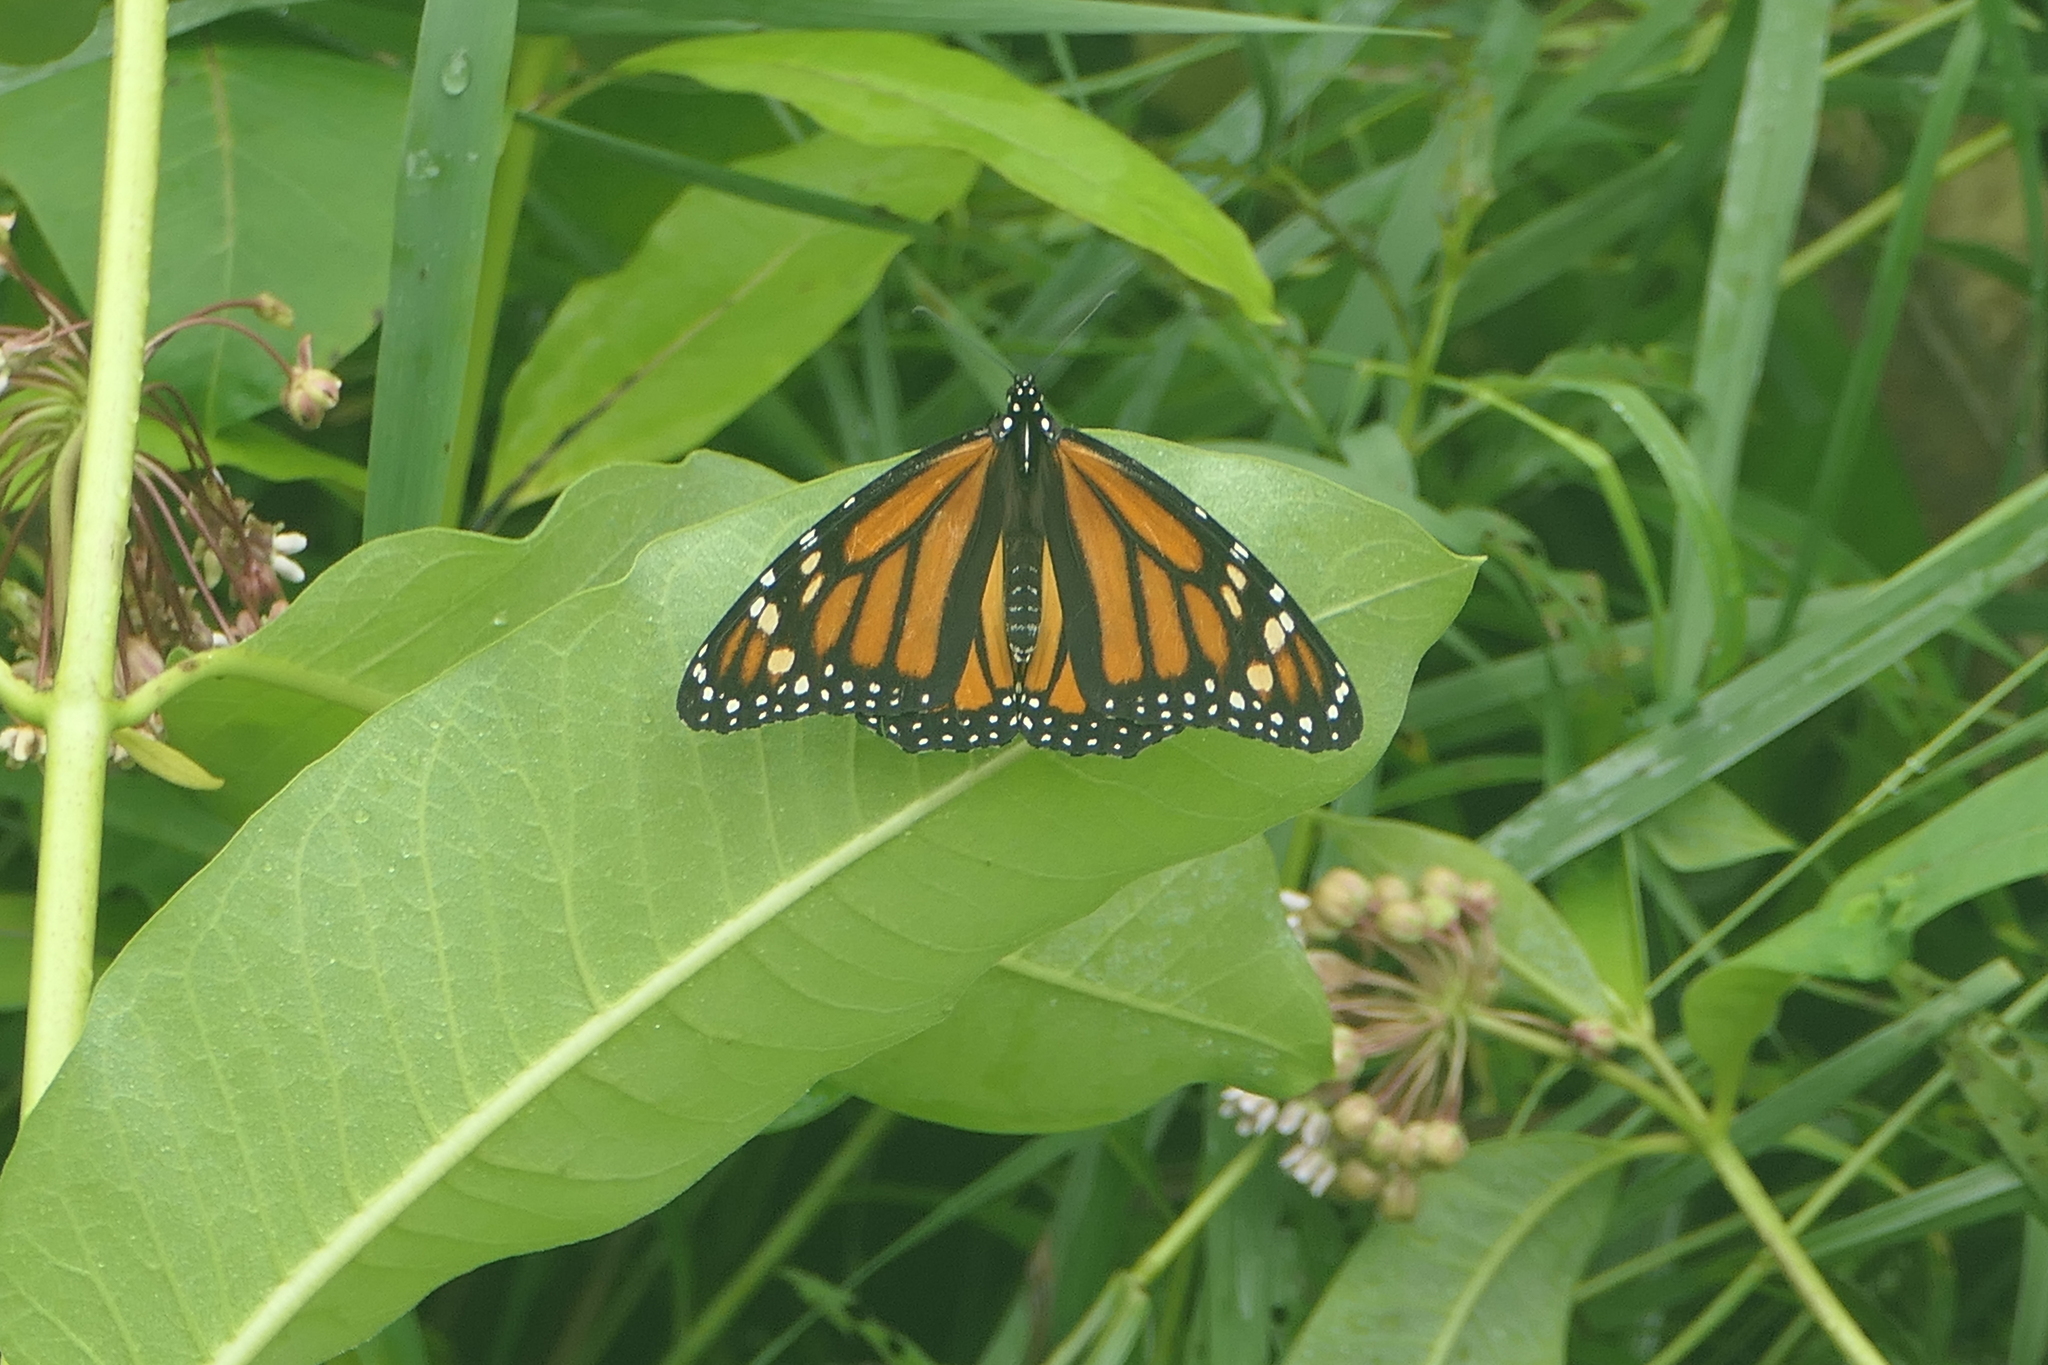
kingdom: Animalia
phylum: Arthropoda
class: Insecta
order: Lepidoptera
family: Nymphalidae
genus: Danaus
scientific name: Danaus plexippus
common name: Monarch
